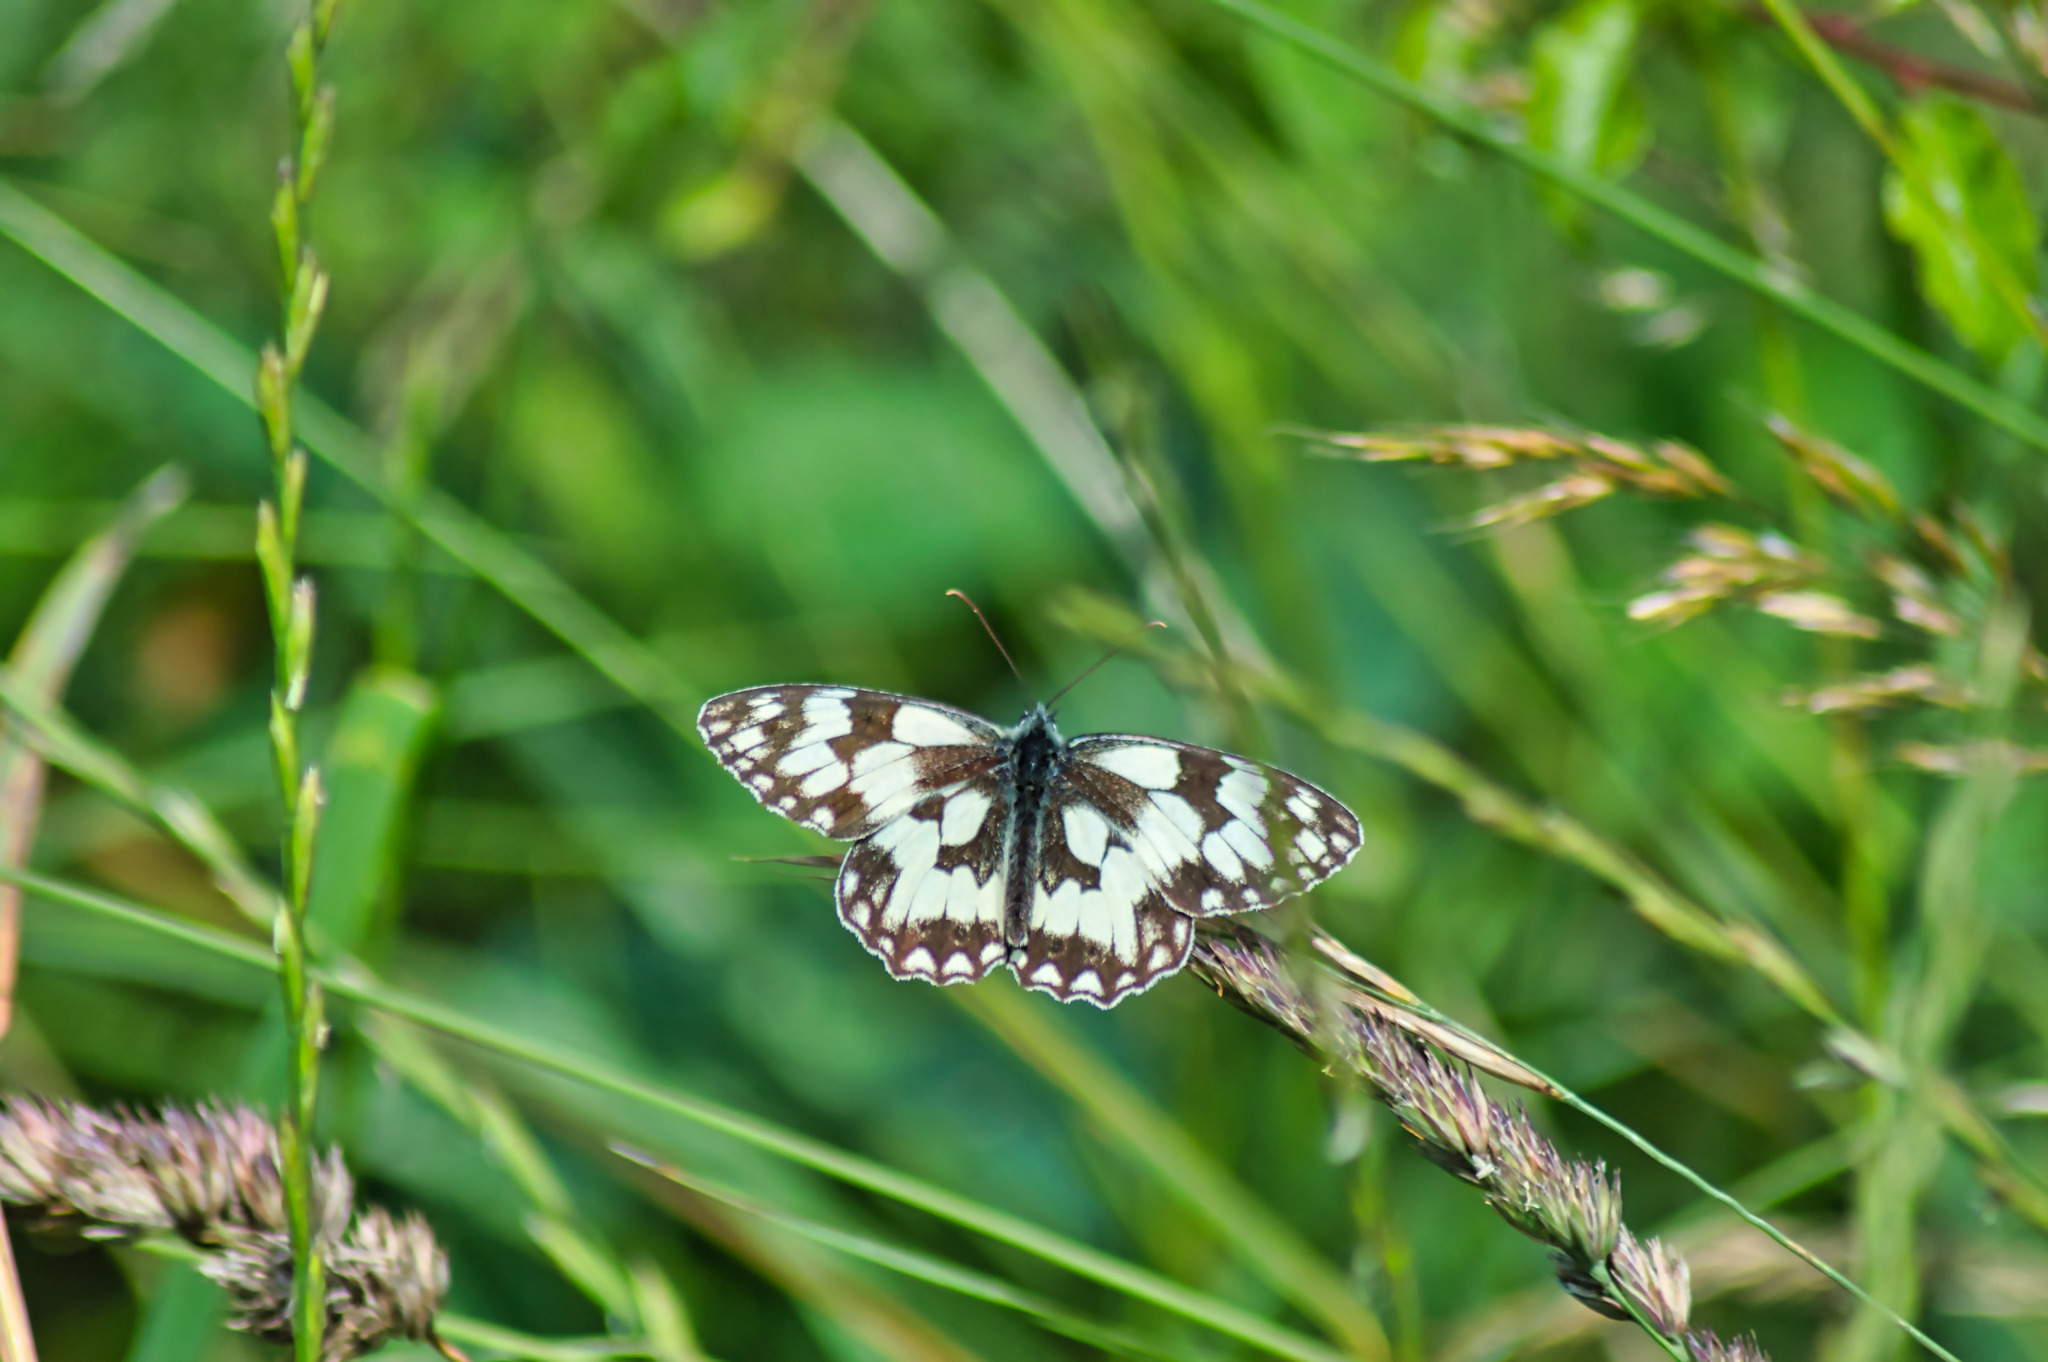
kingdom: Animalia
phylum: Arthropoda
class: Insecta
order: Lepidoptera
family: Nymphalidae
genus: Melanargia
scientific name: Melanargia galathea
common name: Marbled white
